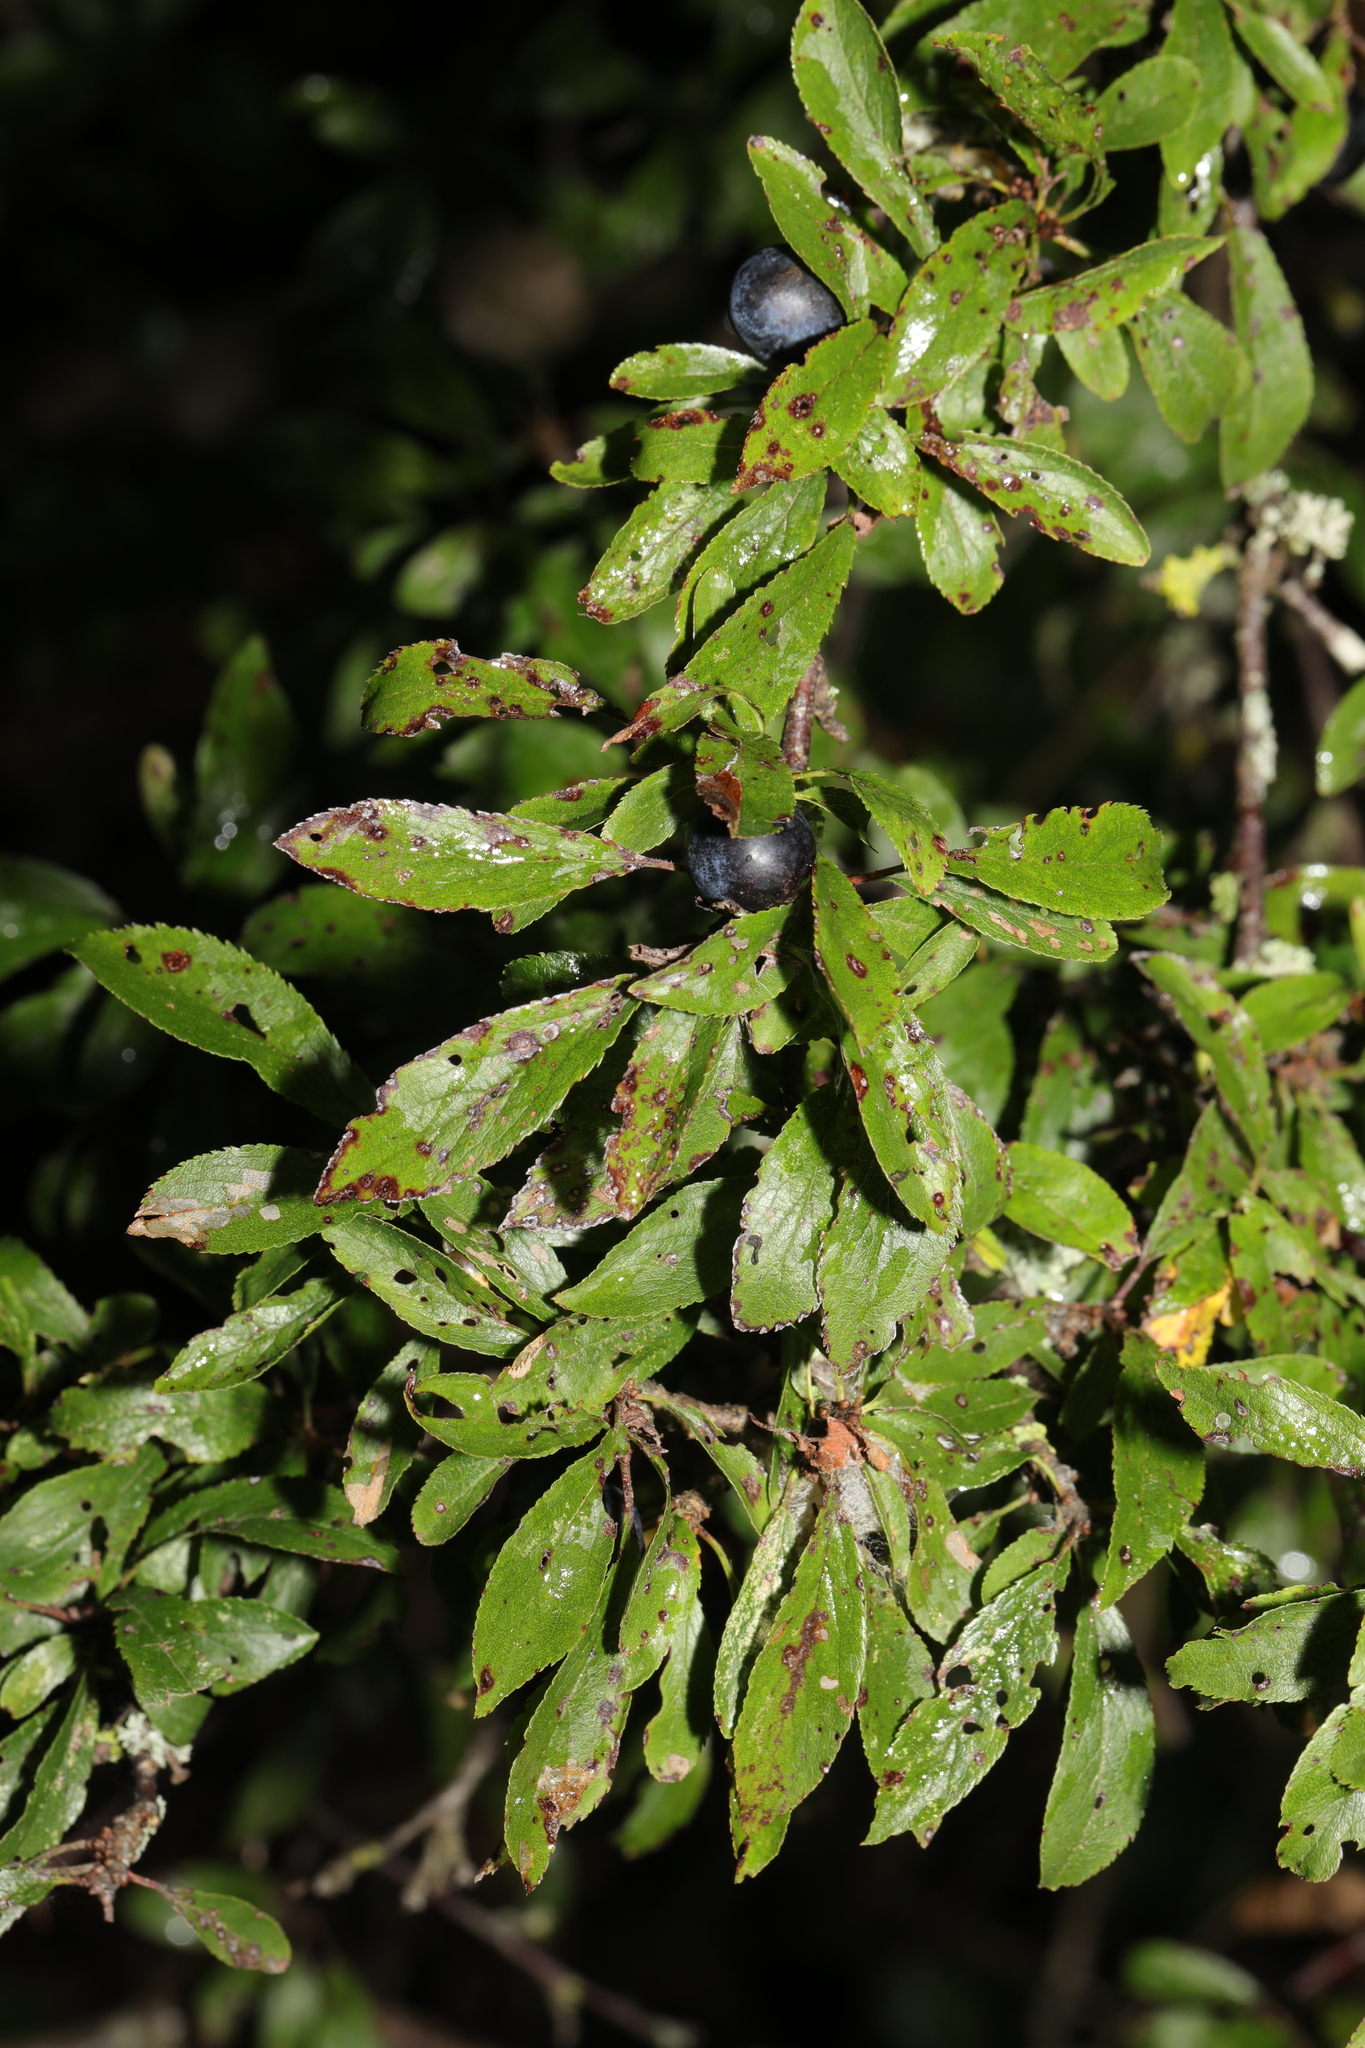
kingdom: Plantae
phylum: Tracheophyta
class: Magnoliopsida
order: Rosales
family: Rosaceae
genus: Prunus
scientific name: Prunus spinosa
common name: Blackthorn
